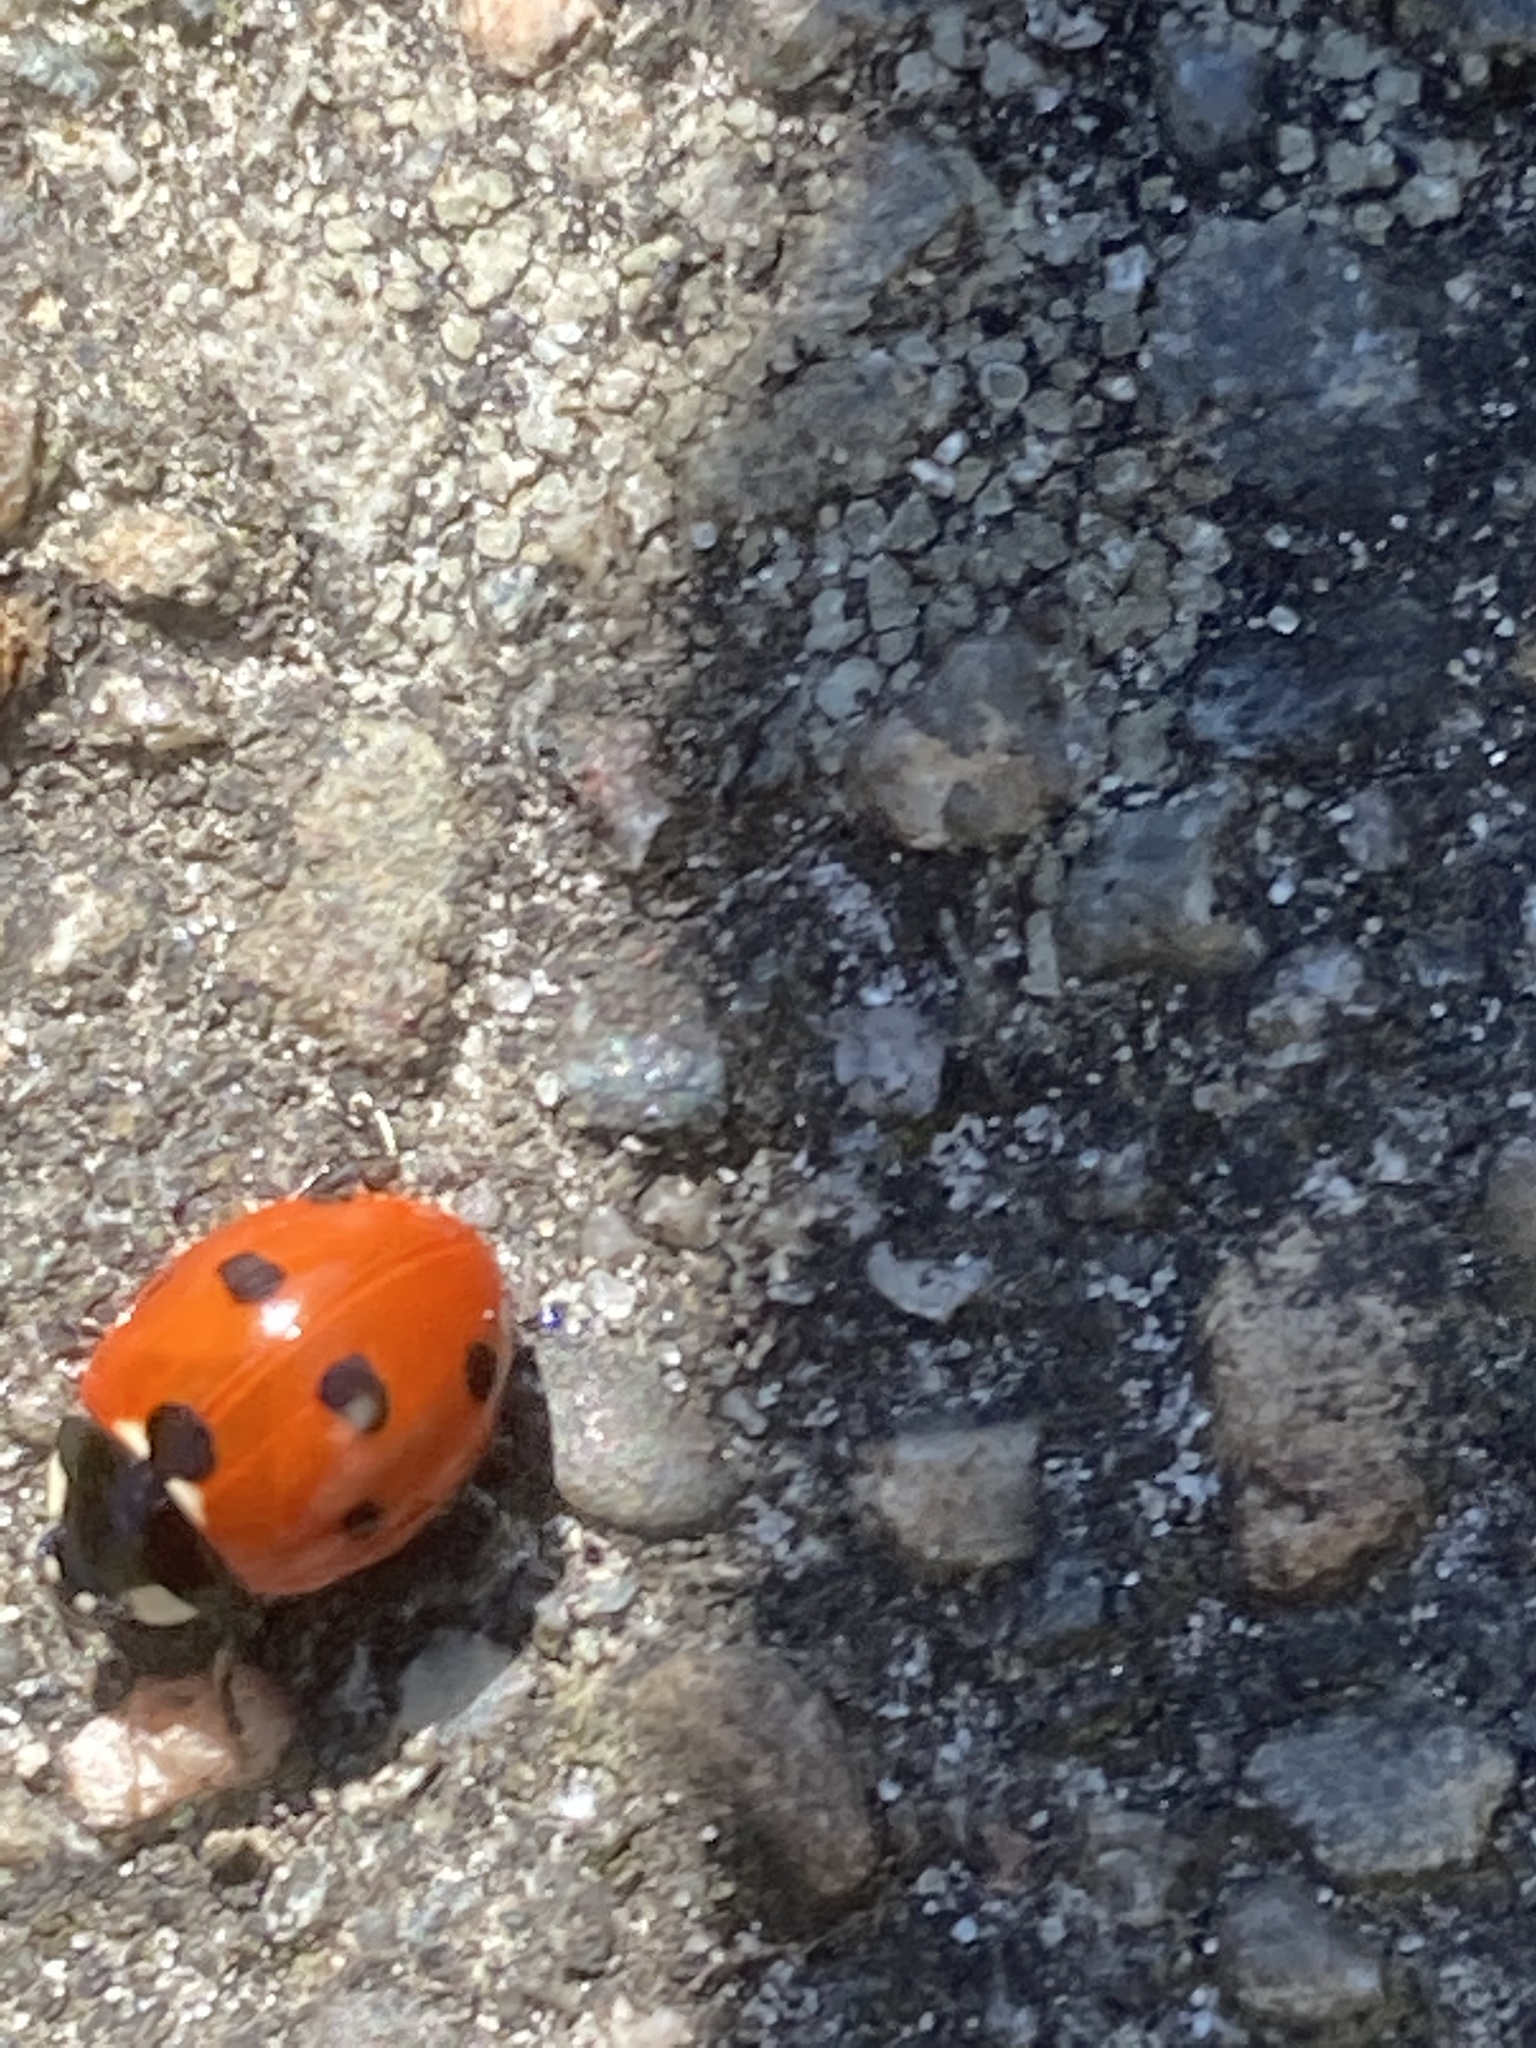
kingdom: Animalia
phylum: Arthropoda
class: Insecta
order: Coleoptera
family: Coccinellidae
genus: Coccinella
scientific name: Coccinella septempunctata
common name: Sevenspotted lady beetle
